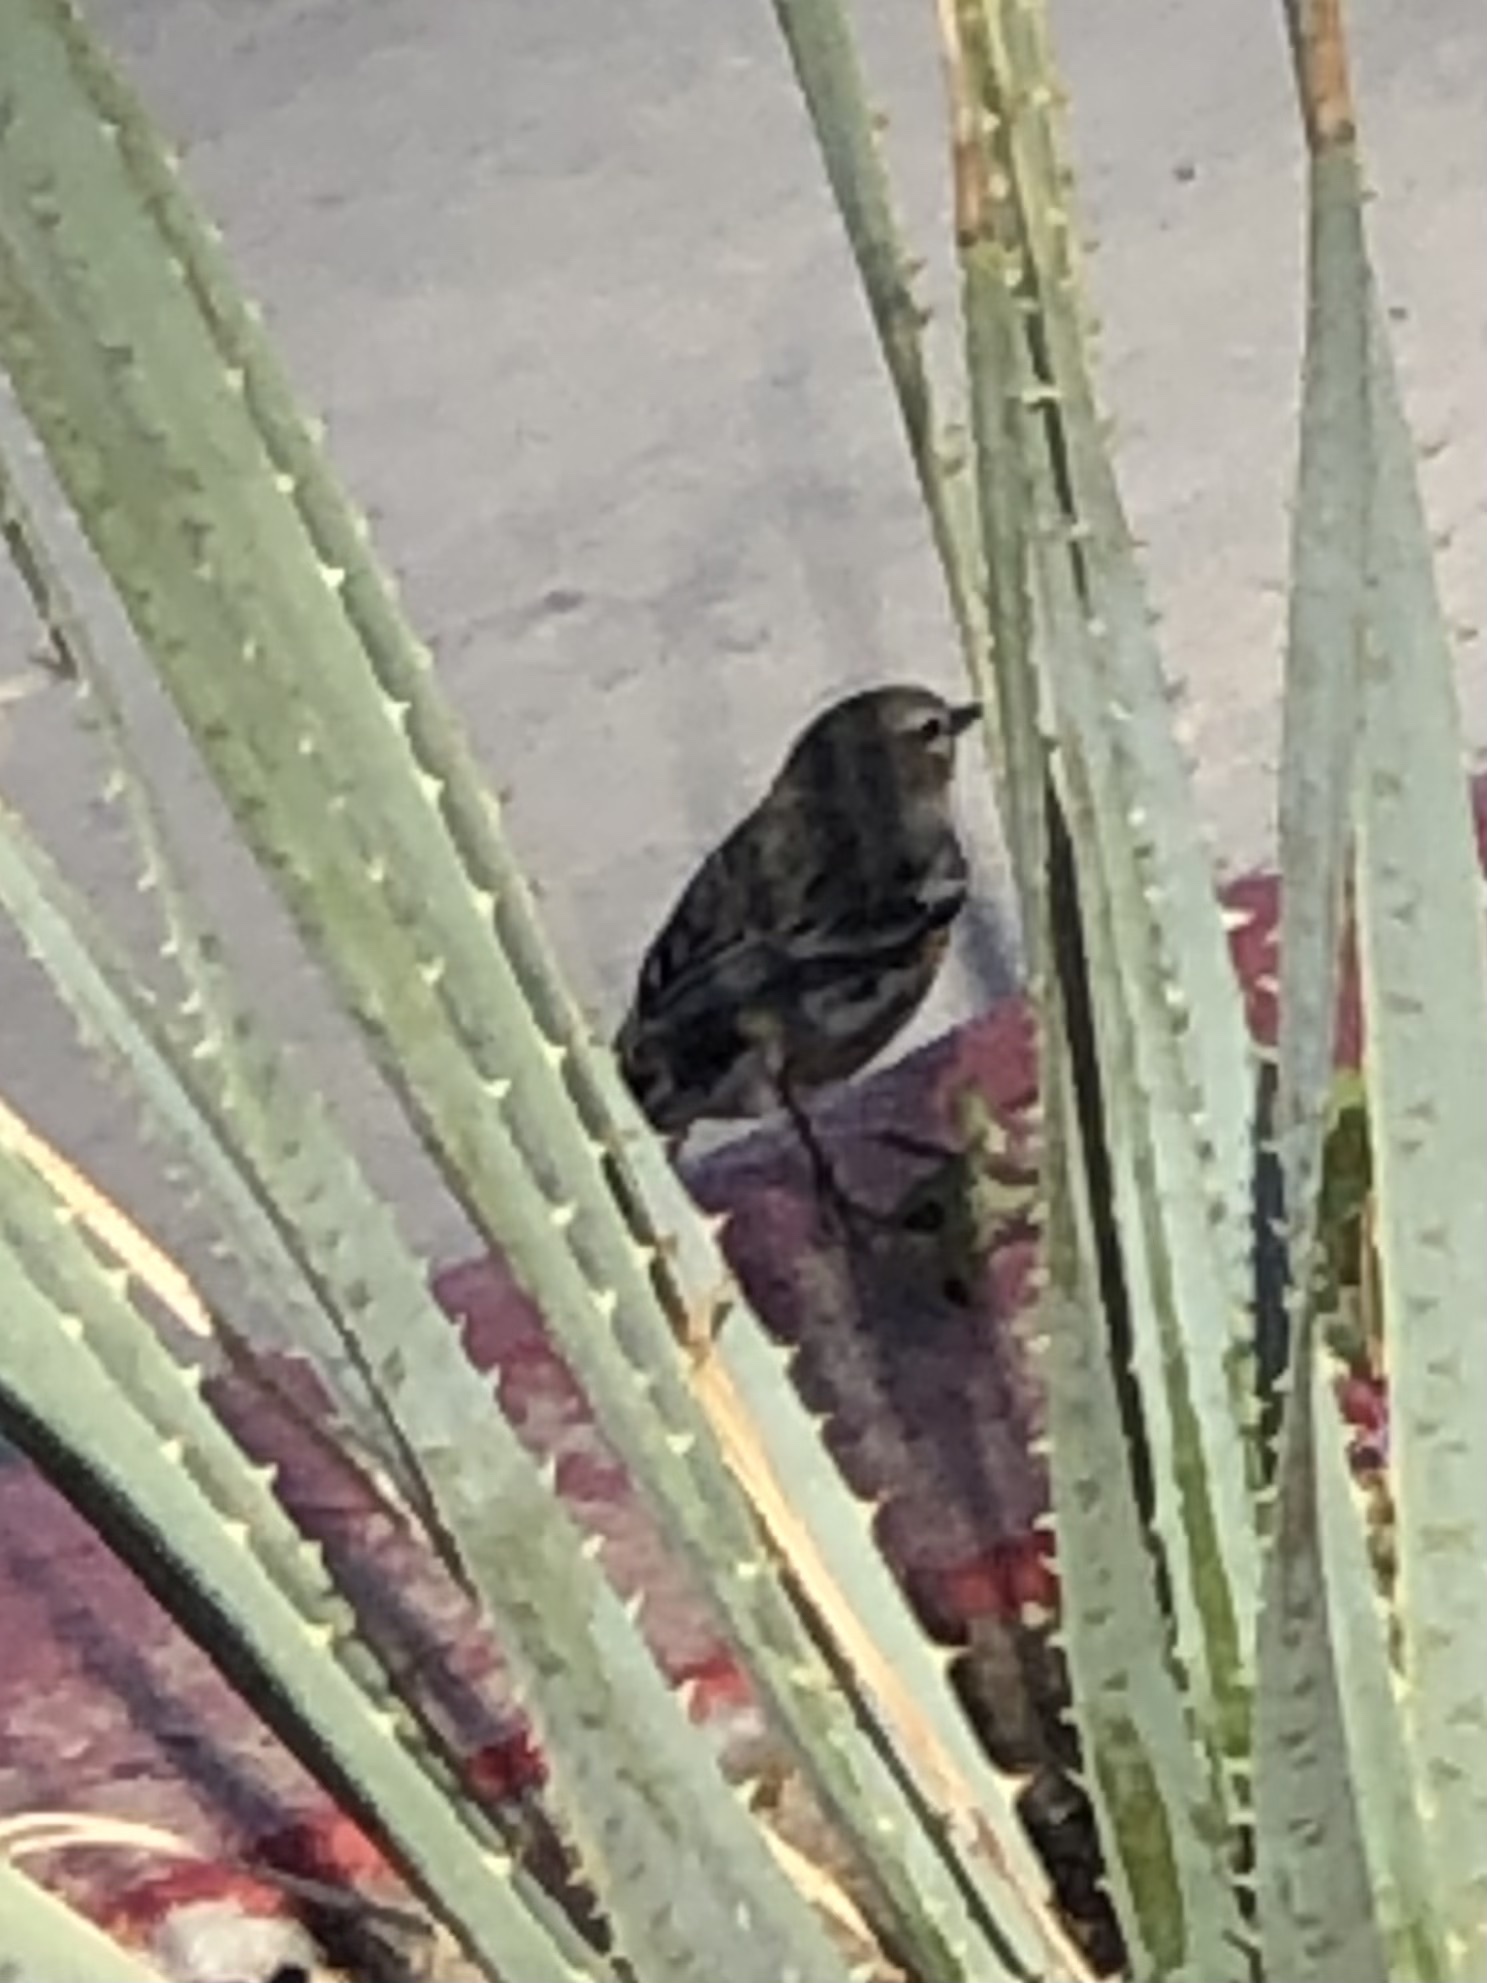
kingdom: Animalia
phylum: Chordata
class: Aves
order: Passeriformes
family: Parulidae
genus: Setophaga
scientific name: Setophaga coronata
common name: Myrtle warbler
